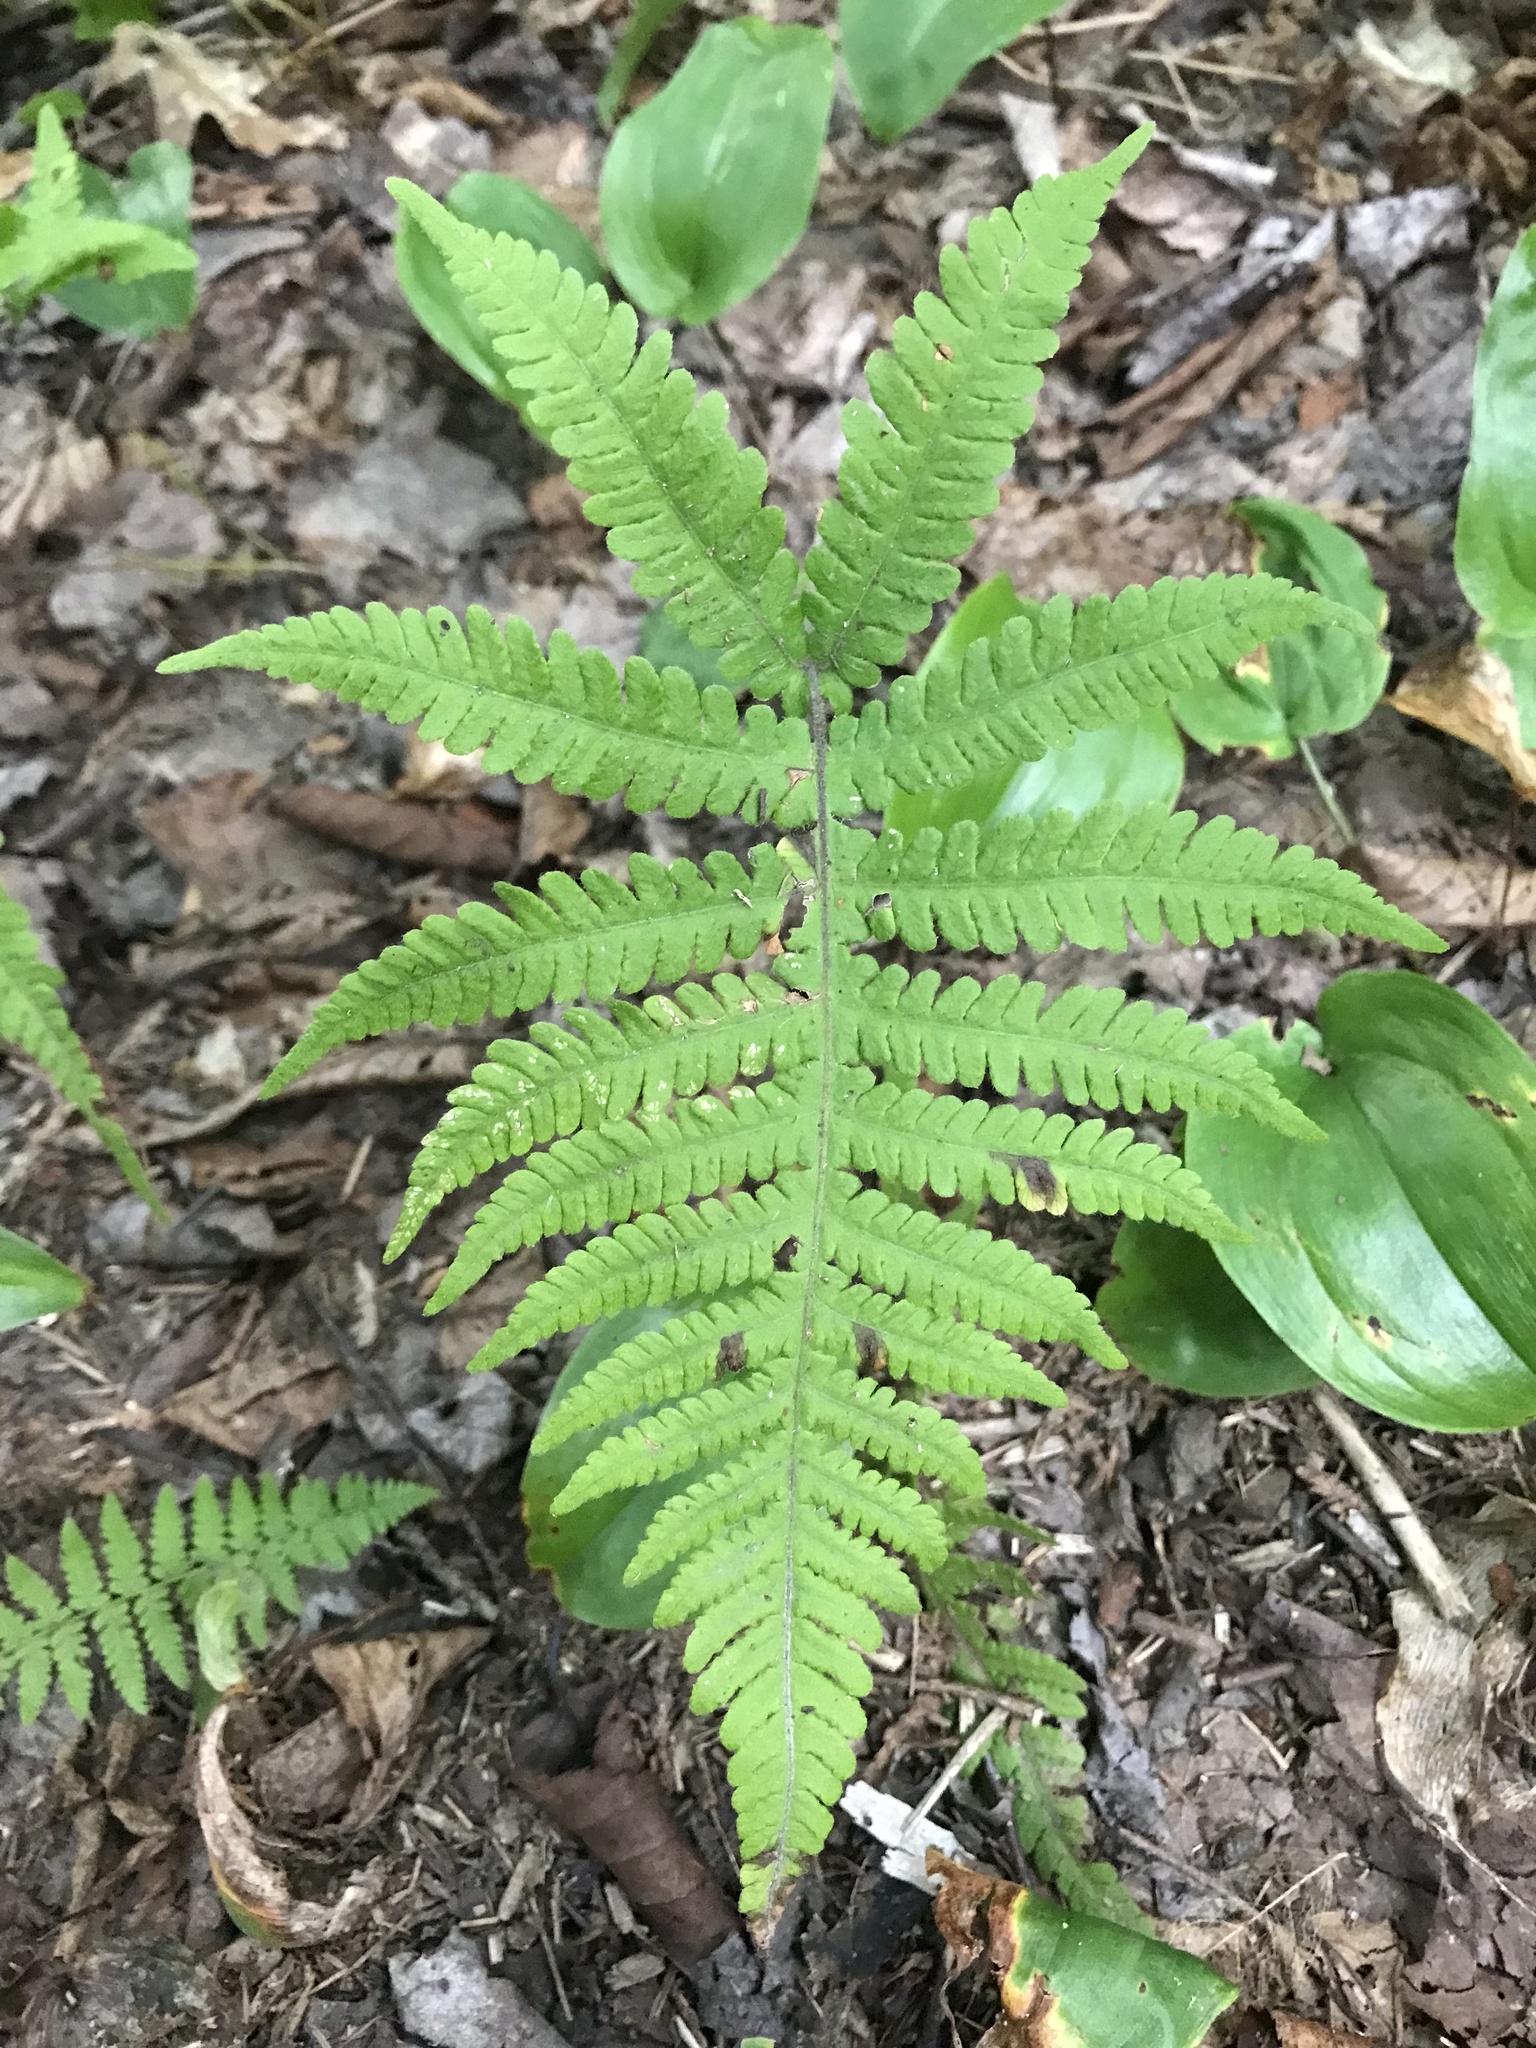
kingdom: Plantae
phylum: Tracheophyta
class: Polypodiopsida
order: Polypodiales
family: Thelypteridaceae
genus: Phegopteris
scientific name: Phegopteris connectilis
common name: Beech fern
